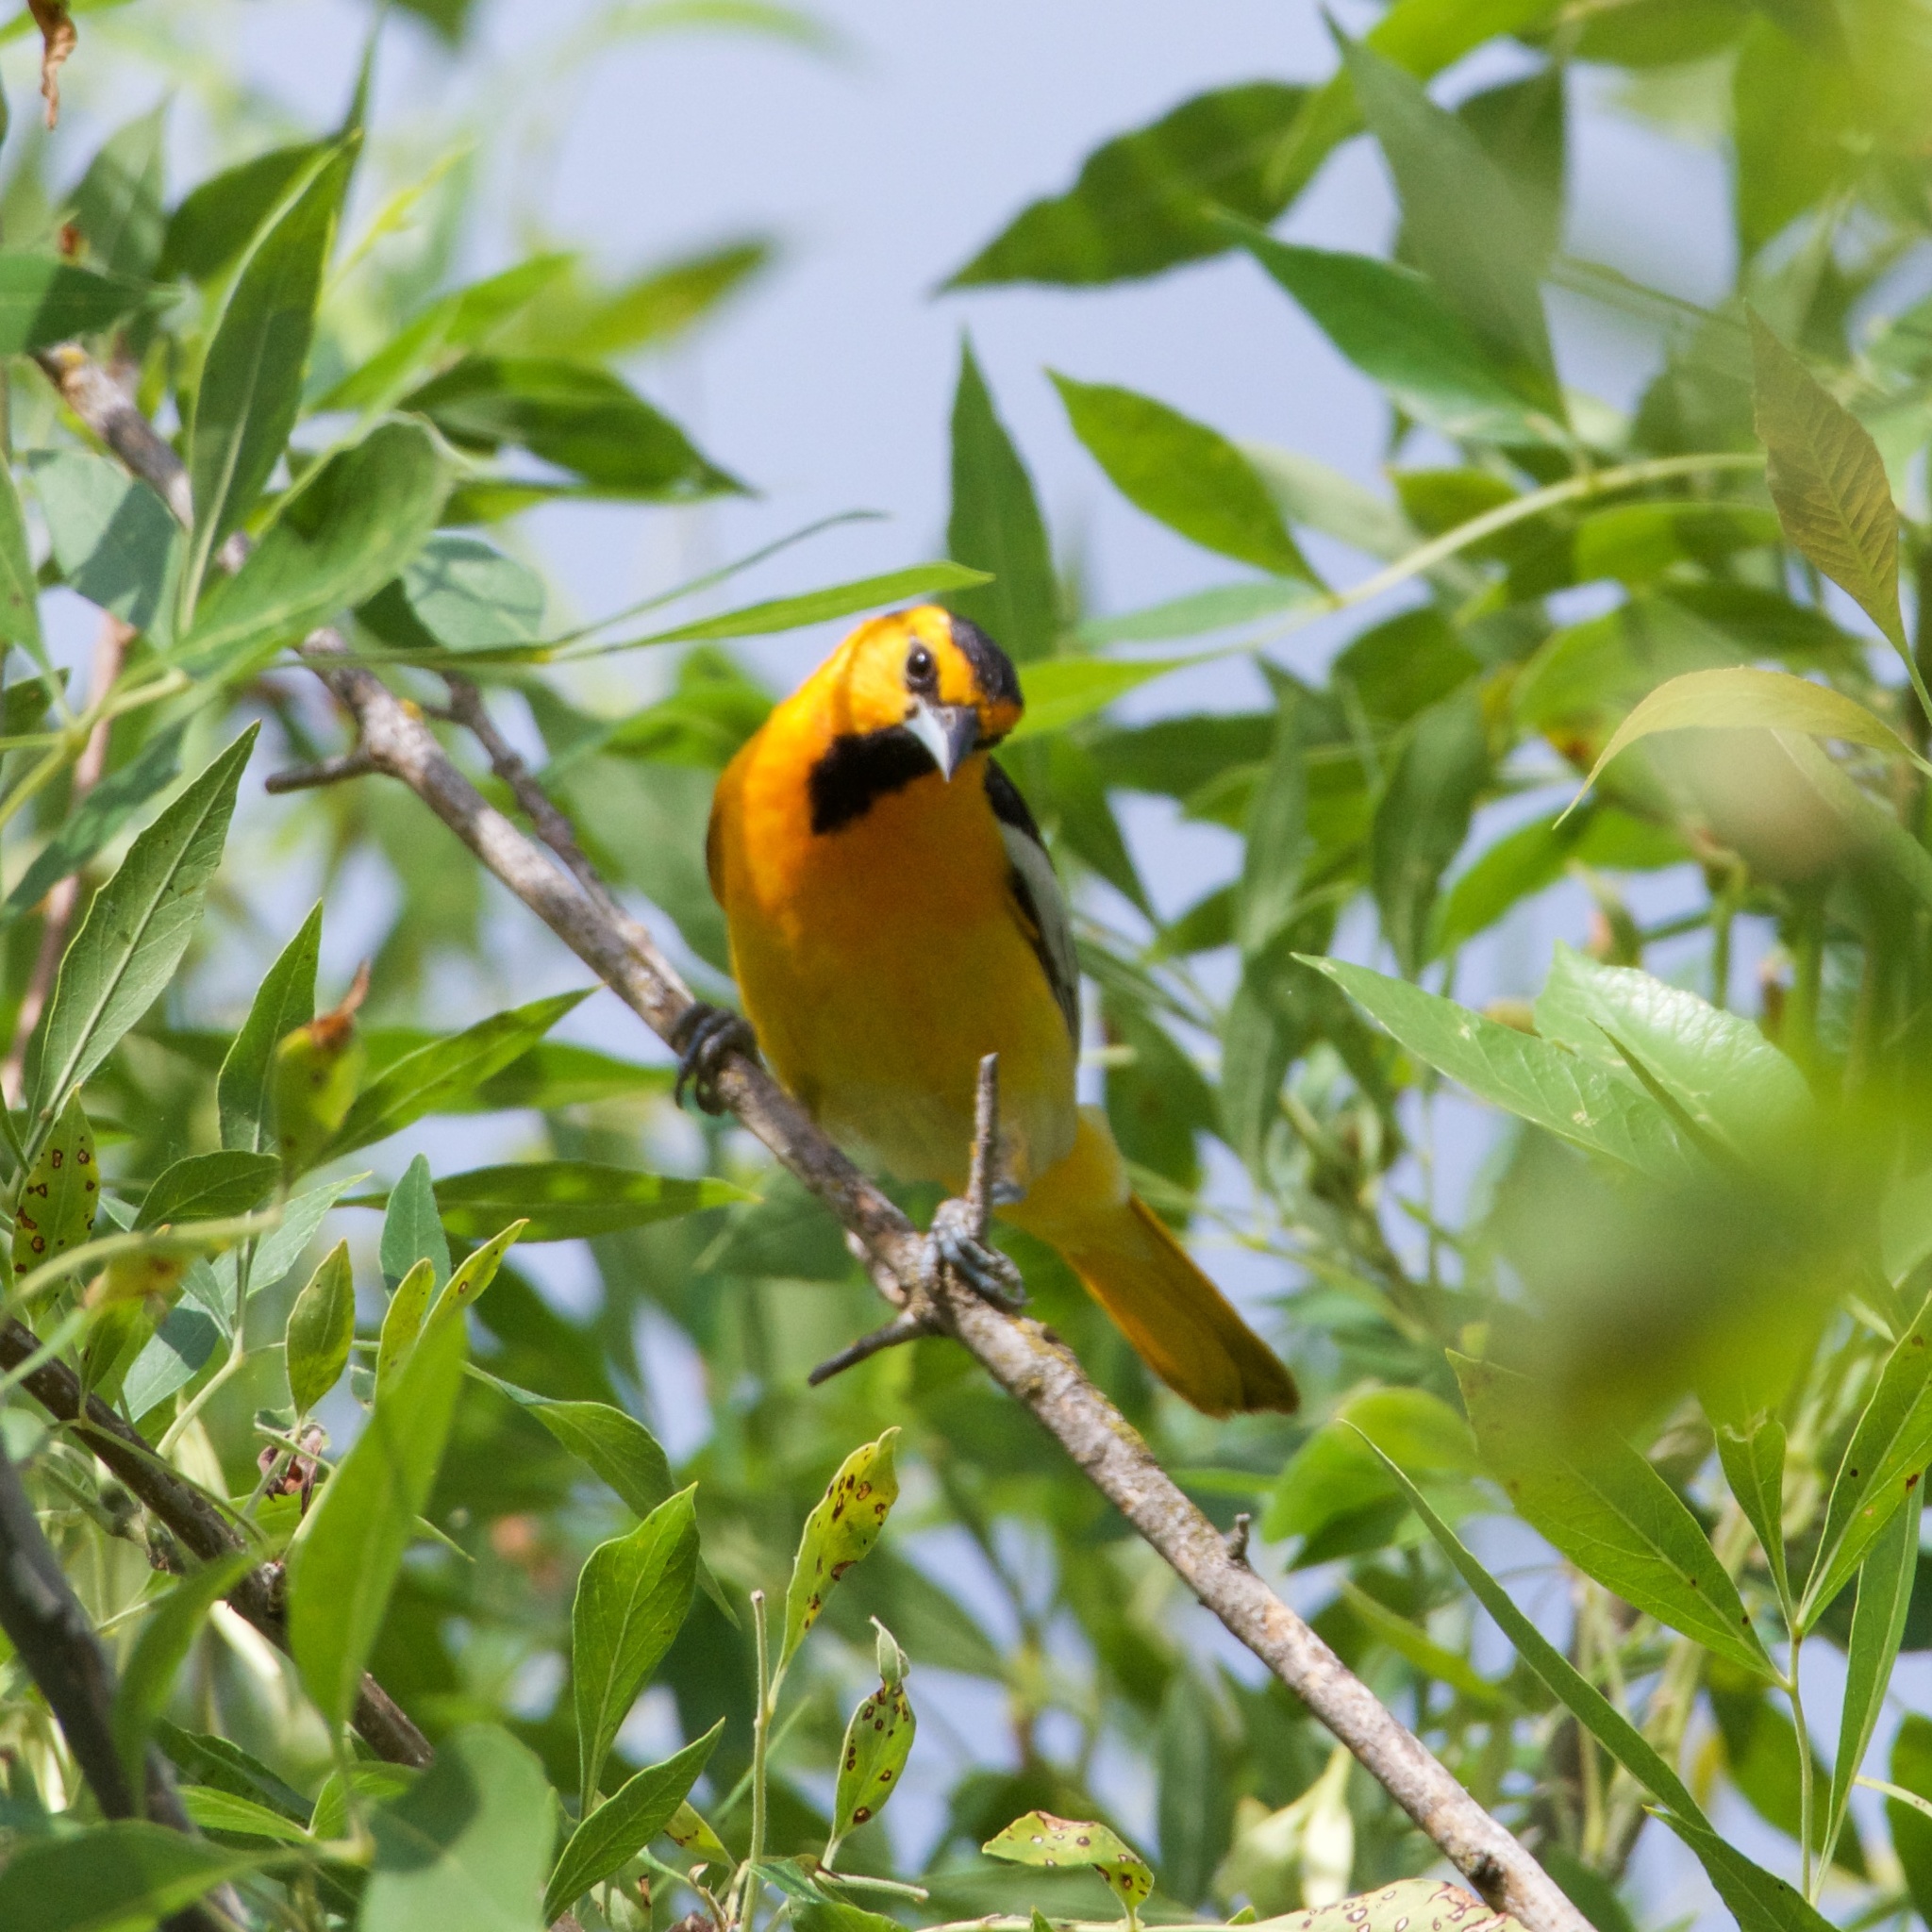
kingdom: Animalia
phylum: Chordata
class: Aves
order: Passeriformes
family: Icteridae
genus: Icterus
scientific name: Icterus bullockii
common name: Bullock's oriole
